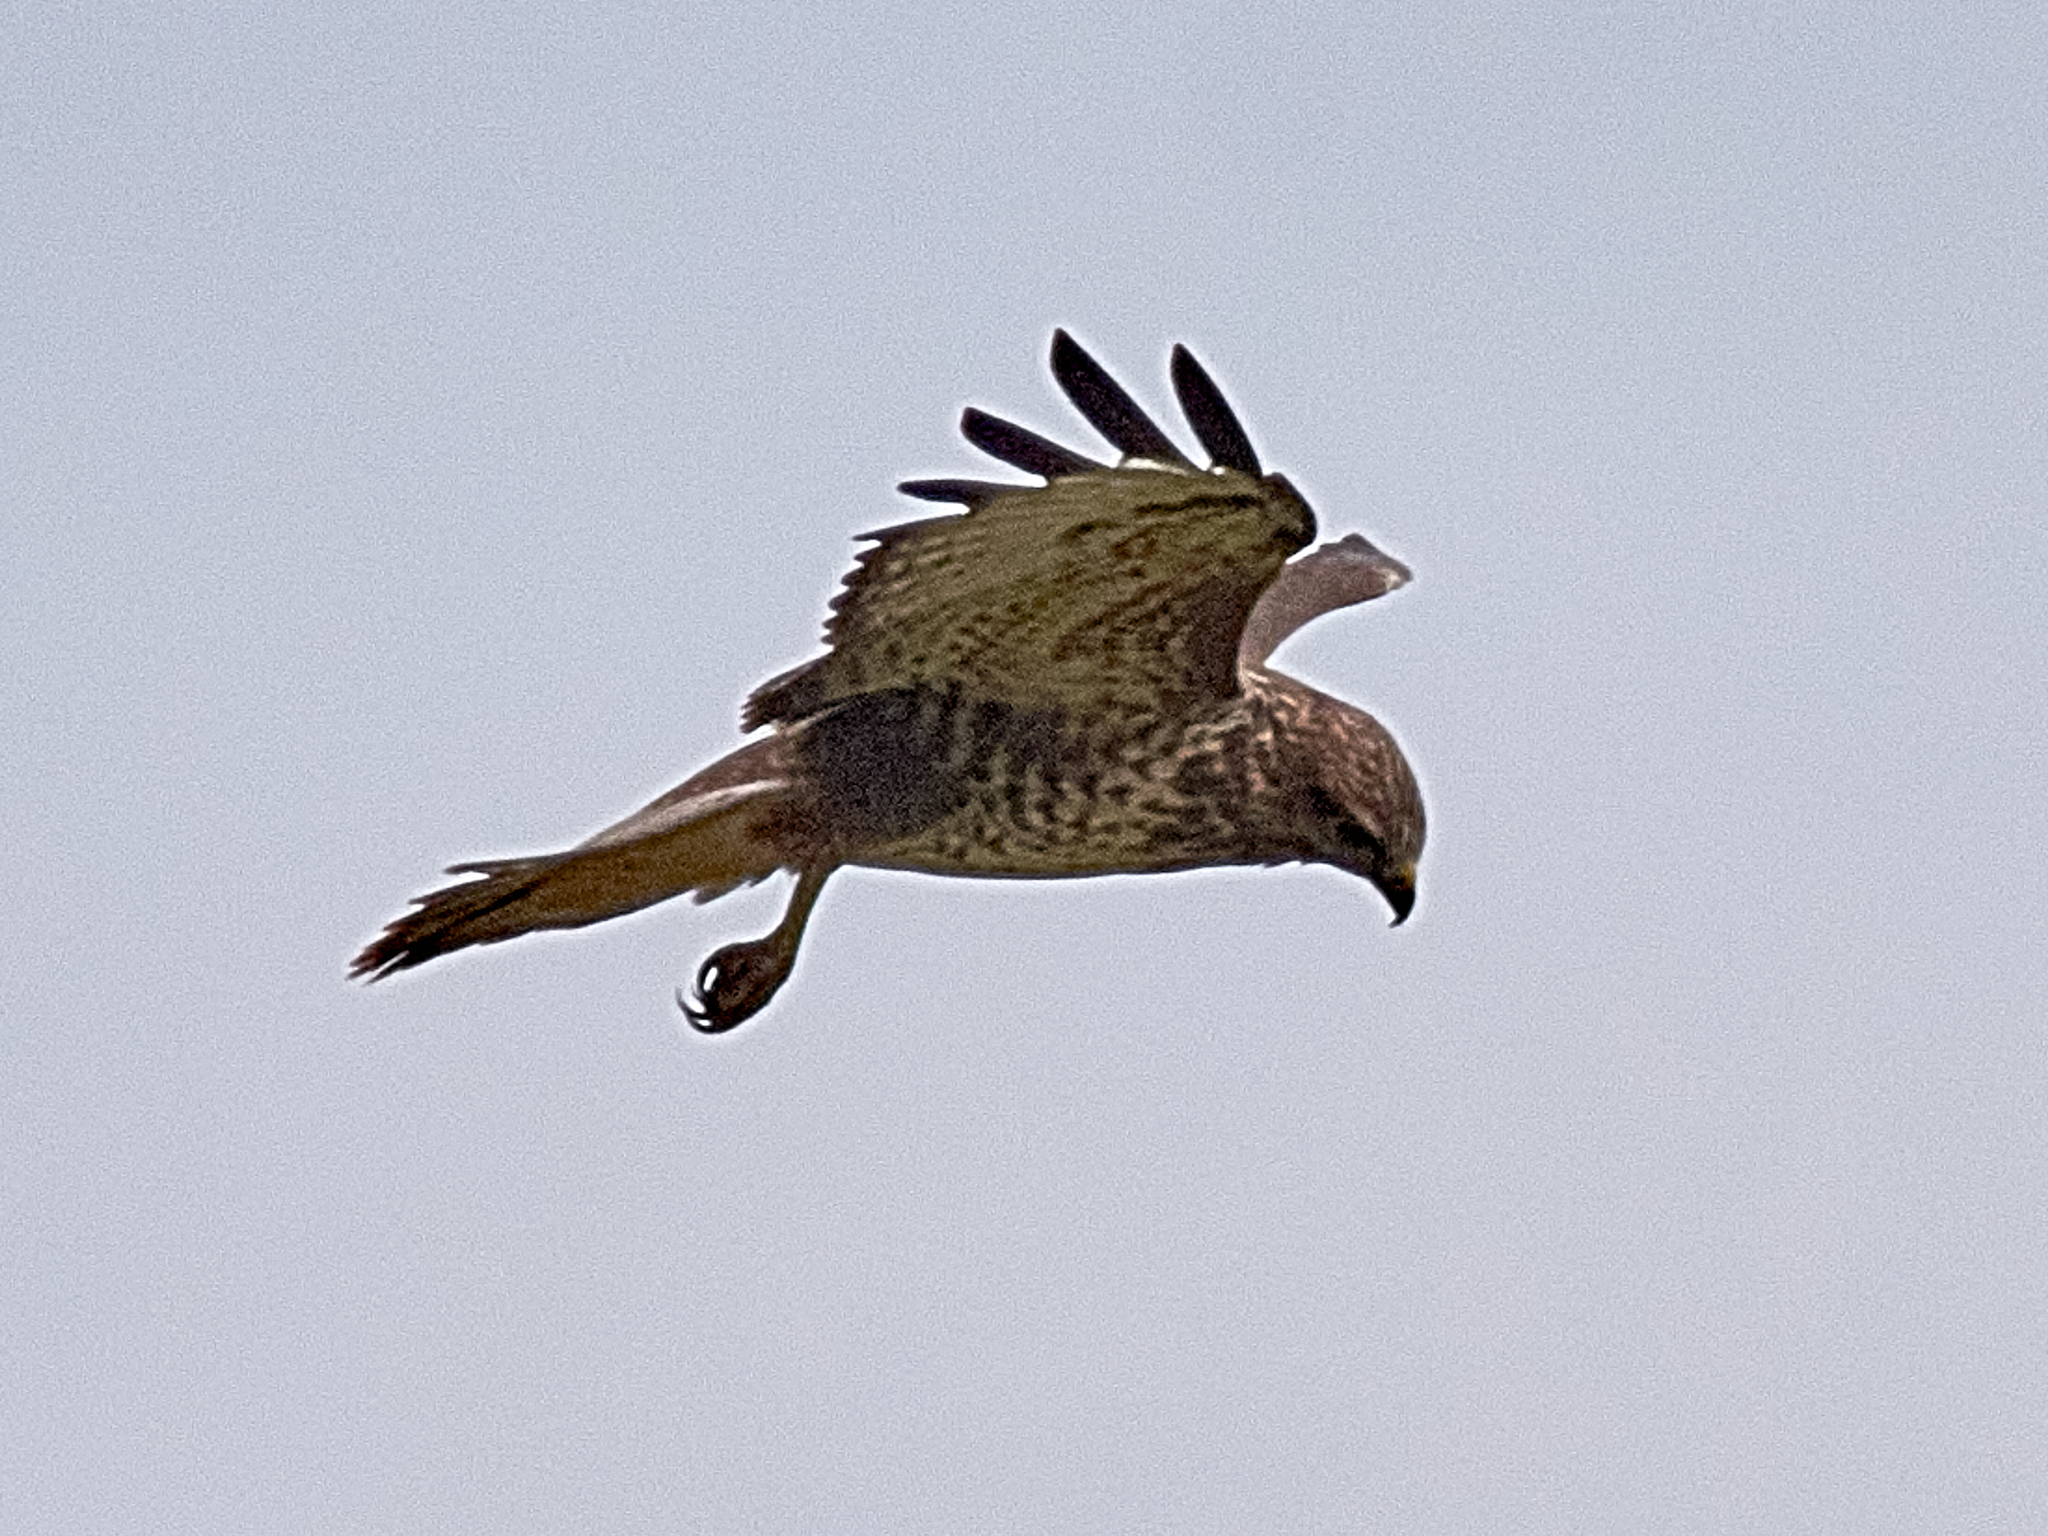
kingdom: Animalia
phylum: Chordata
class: Aves
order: Accipitriformes
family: Accipitridae
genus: Buteo
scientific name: Buteo buteo
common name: Common buzzard
